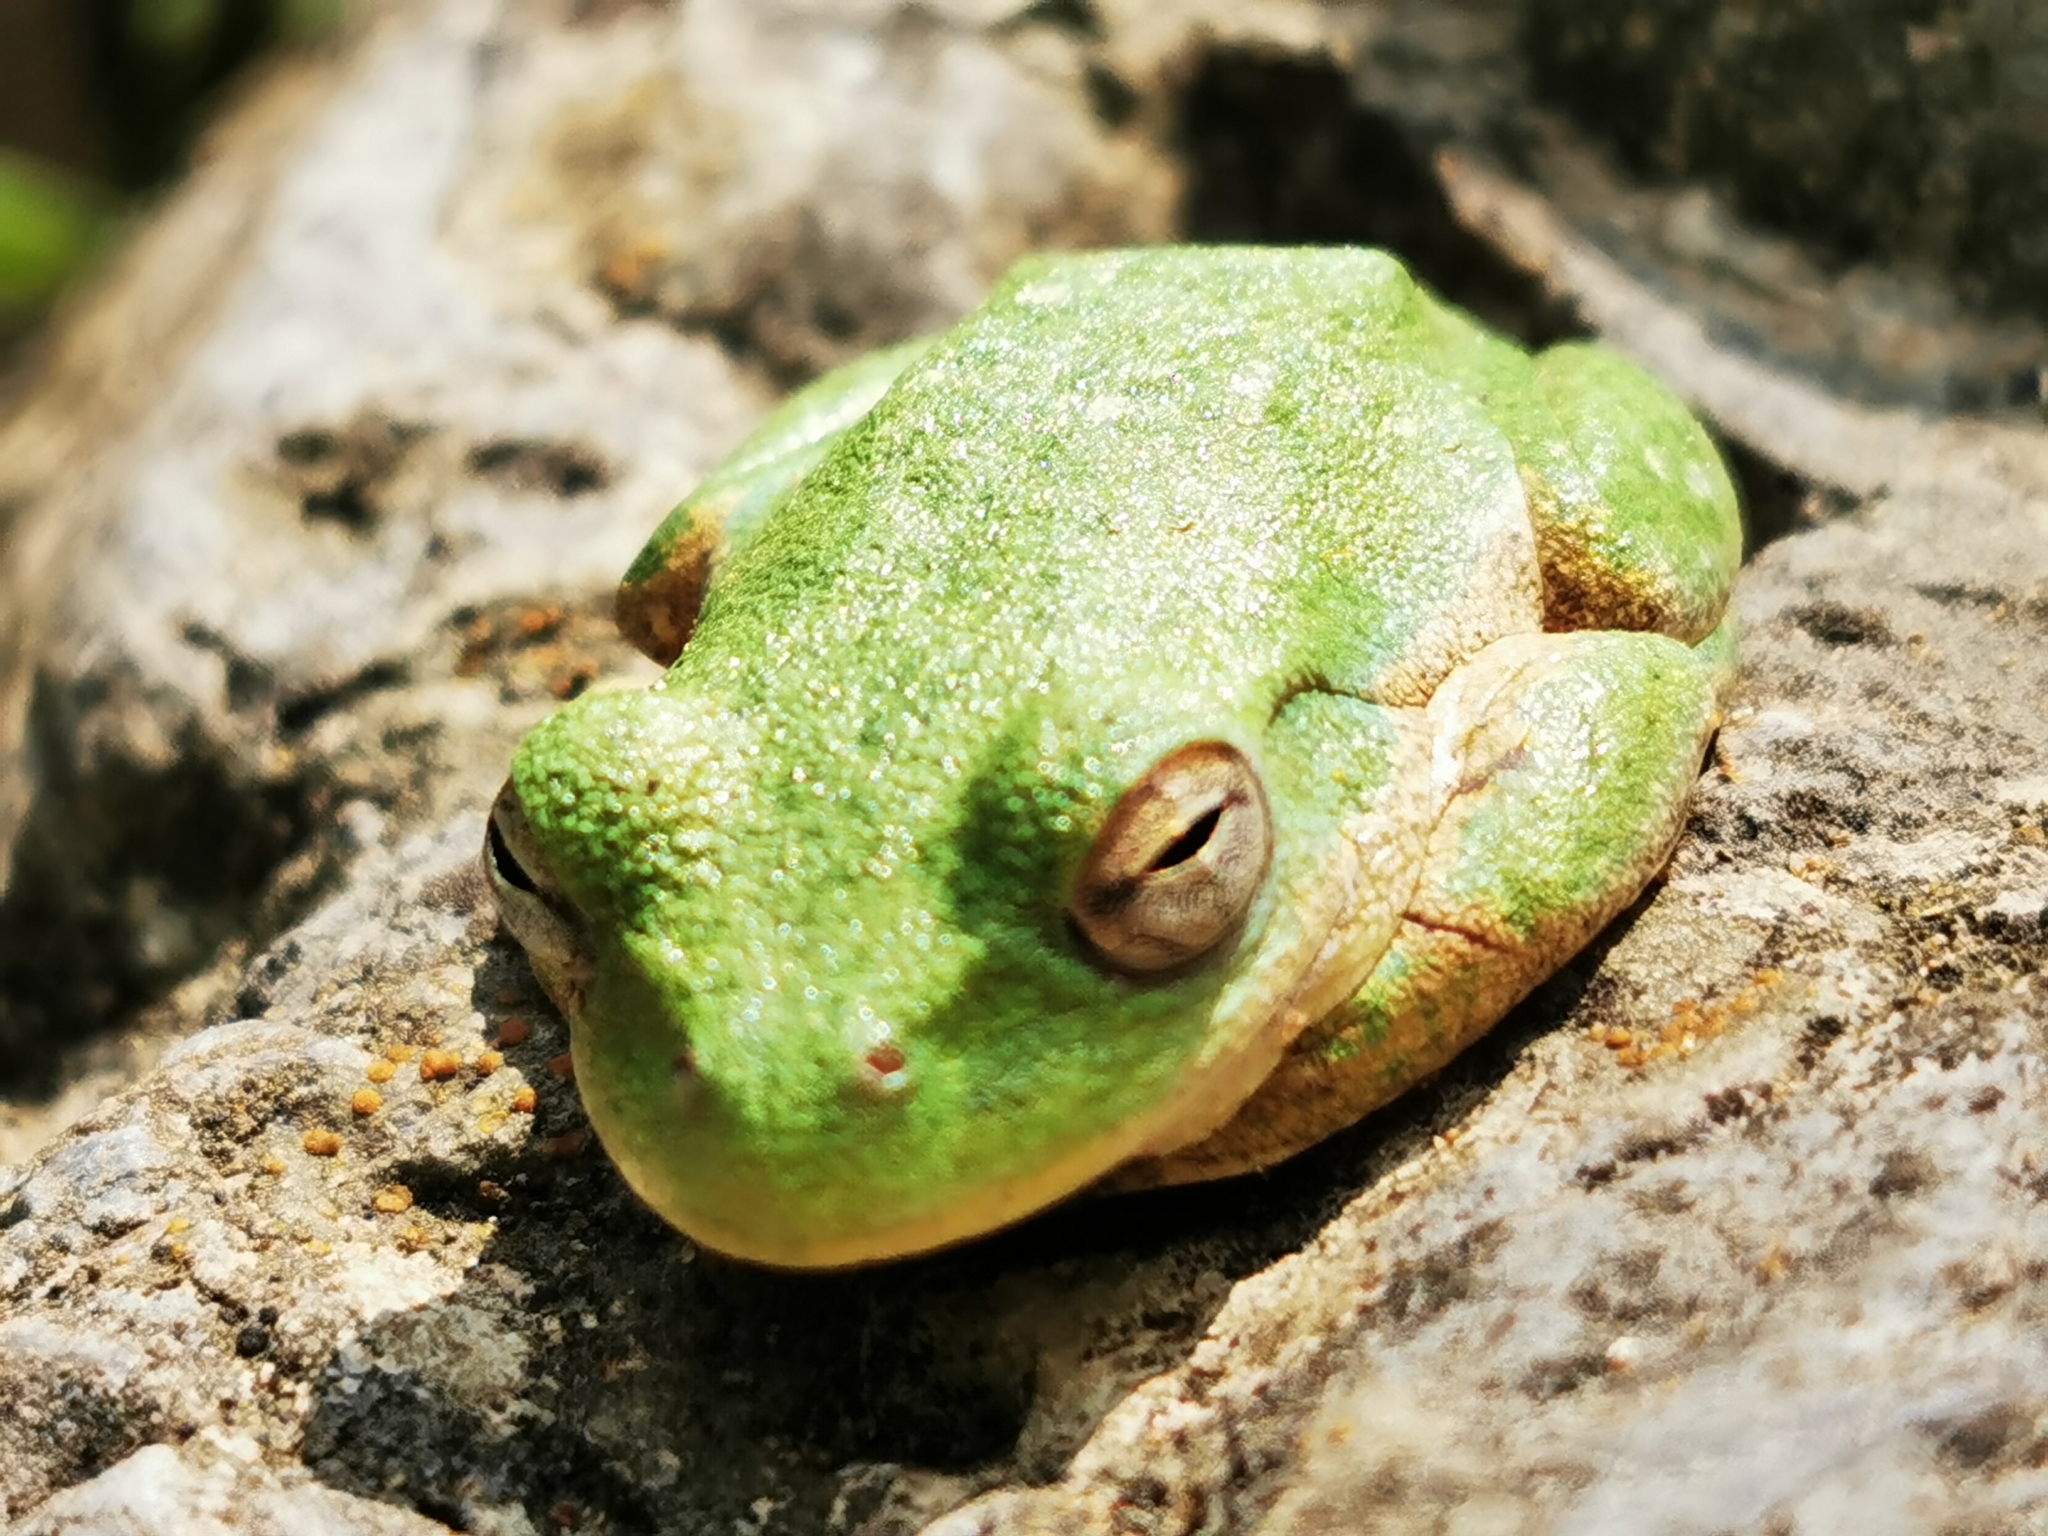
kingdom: Animalia
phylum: Chordata
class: Amphibia
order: Anura
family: Hylidae
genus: Rheohyla
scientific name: Rheohyla miotympanum
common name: Small-eard hyla
